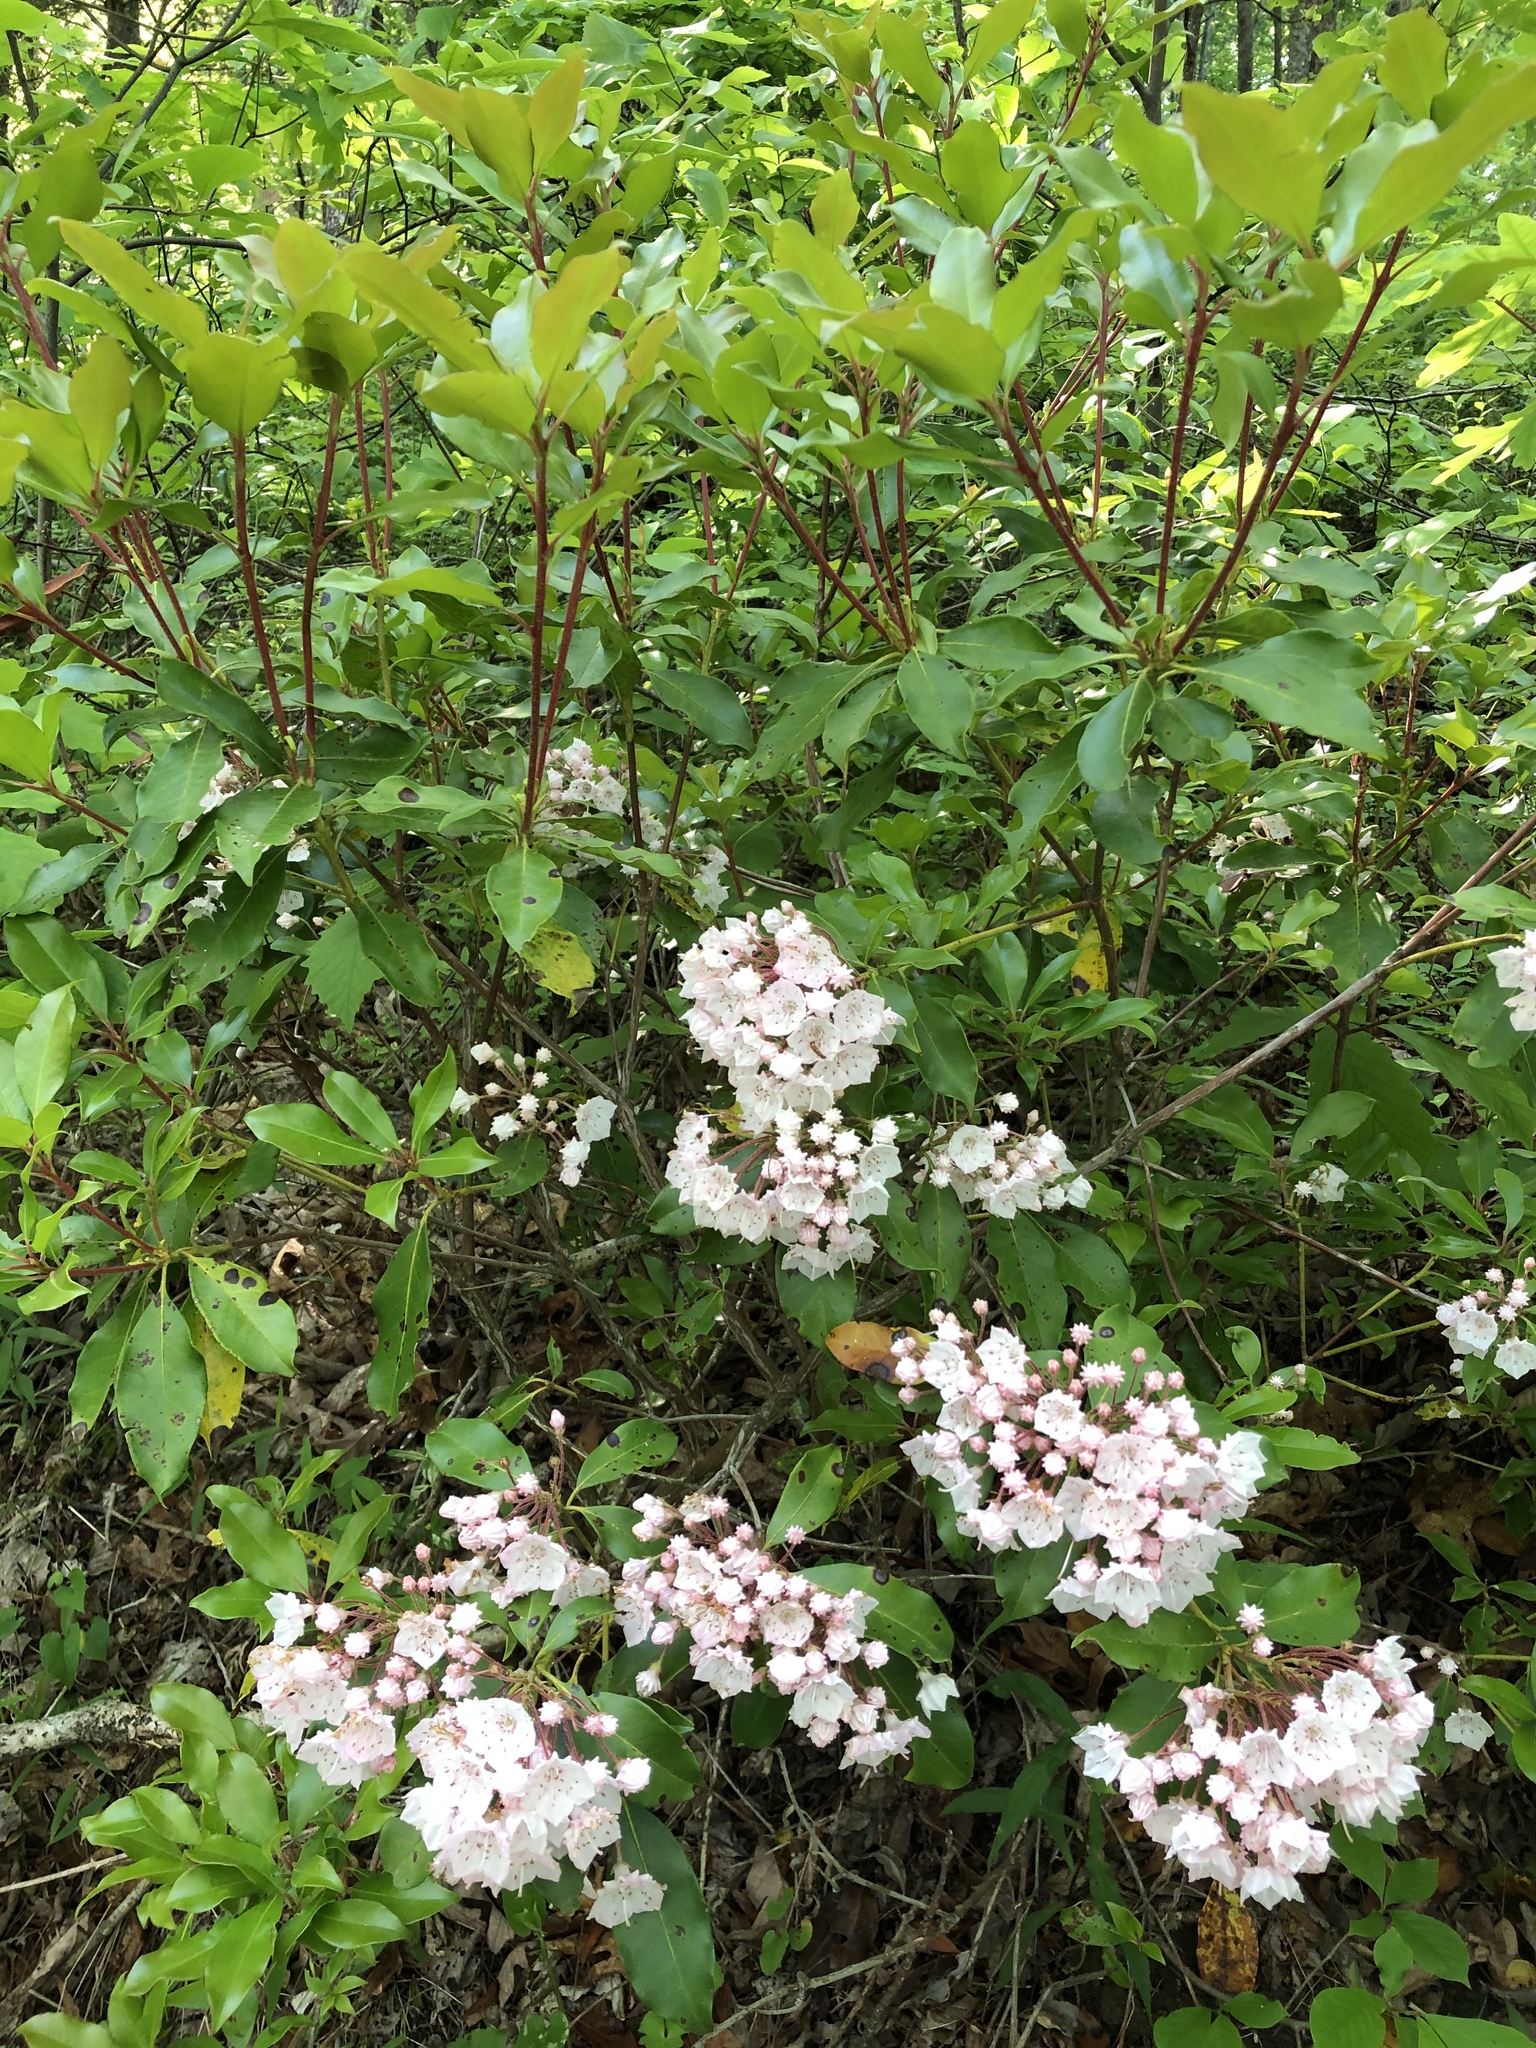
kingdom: Plantae
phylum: Tracheophyta
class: Magnoliopsida
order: Ericales
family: Ericaceae
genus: Kalmia
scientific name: Kalmia latifolia
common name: Mountain-laurel
